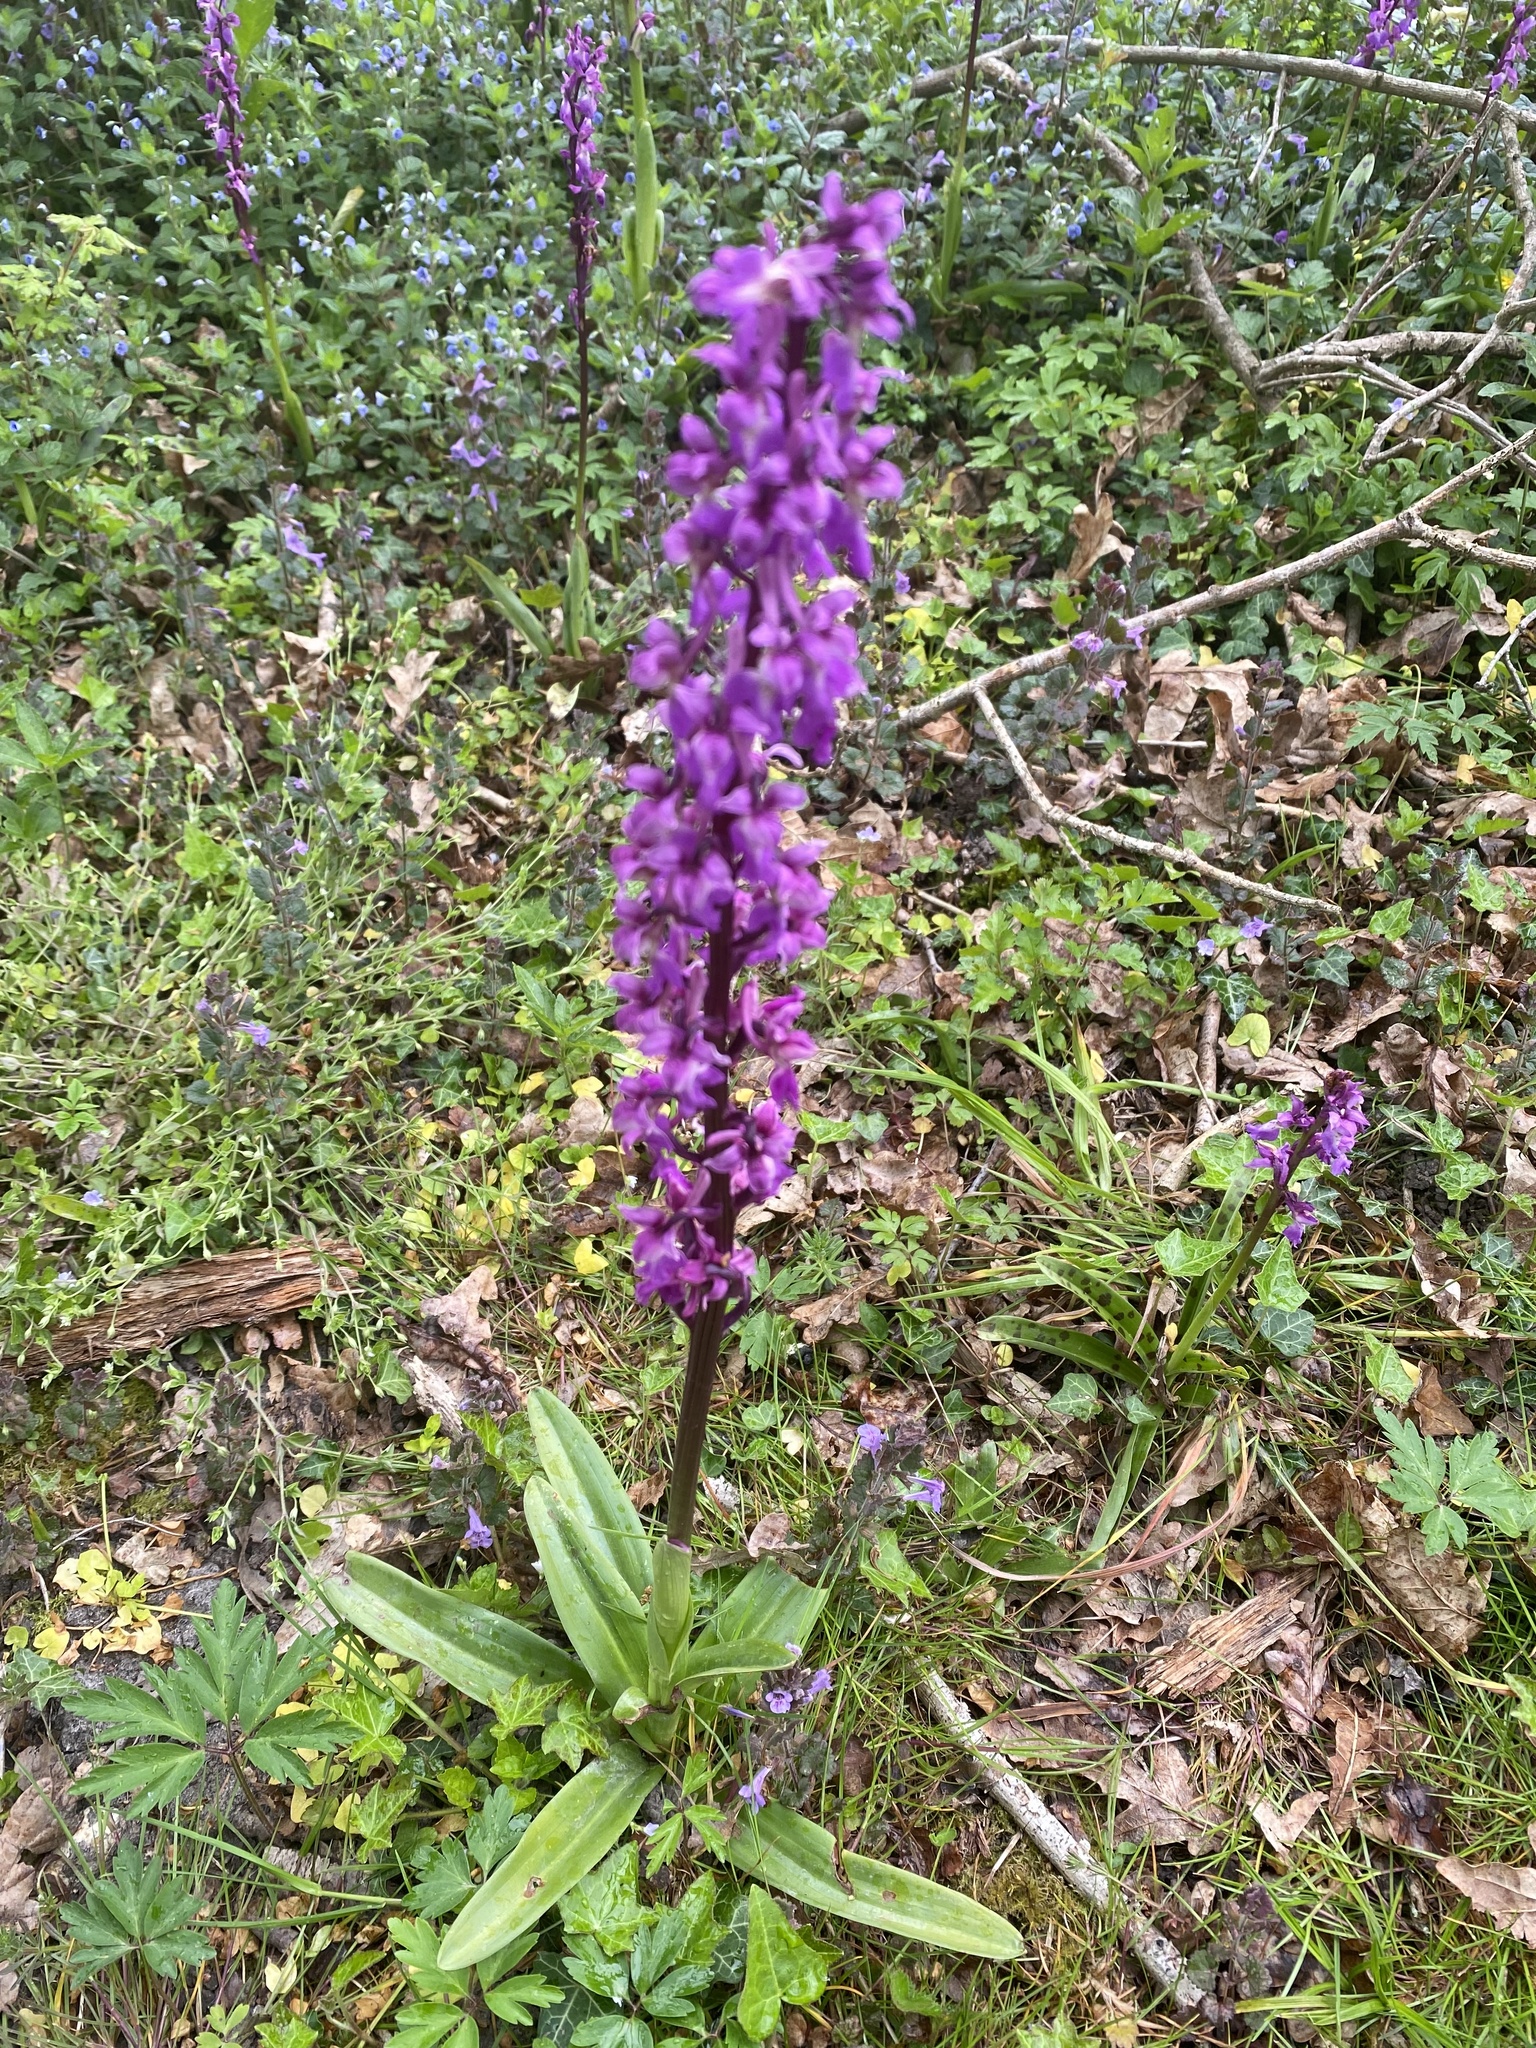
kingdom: Plantae
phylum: Tracheophyta
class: Liliopsida
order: Asparagales
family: Orchidaceae
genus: Orchis
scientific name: Orchis mascula
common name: Early-purple orchid
